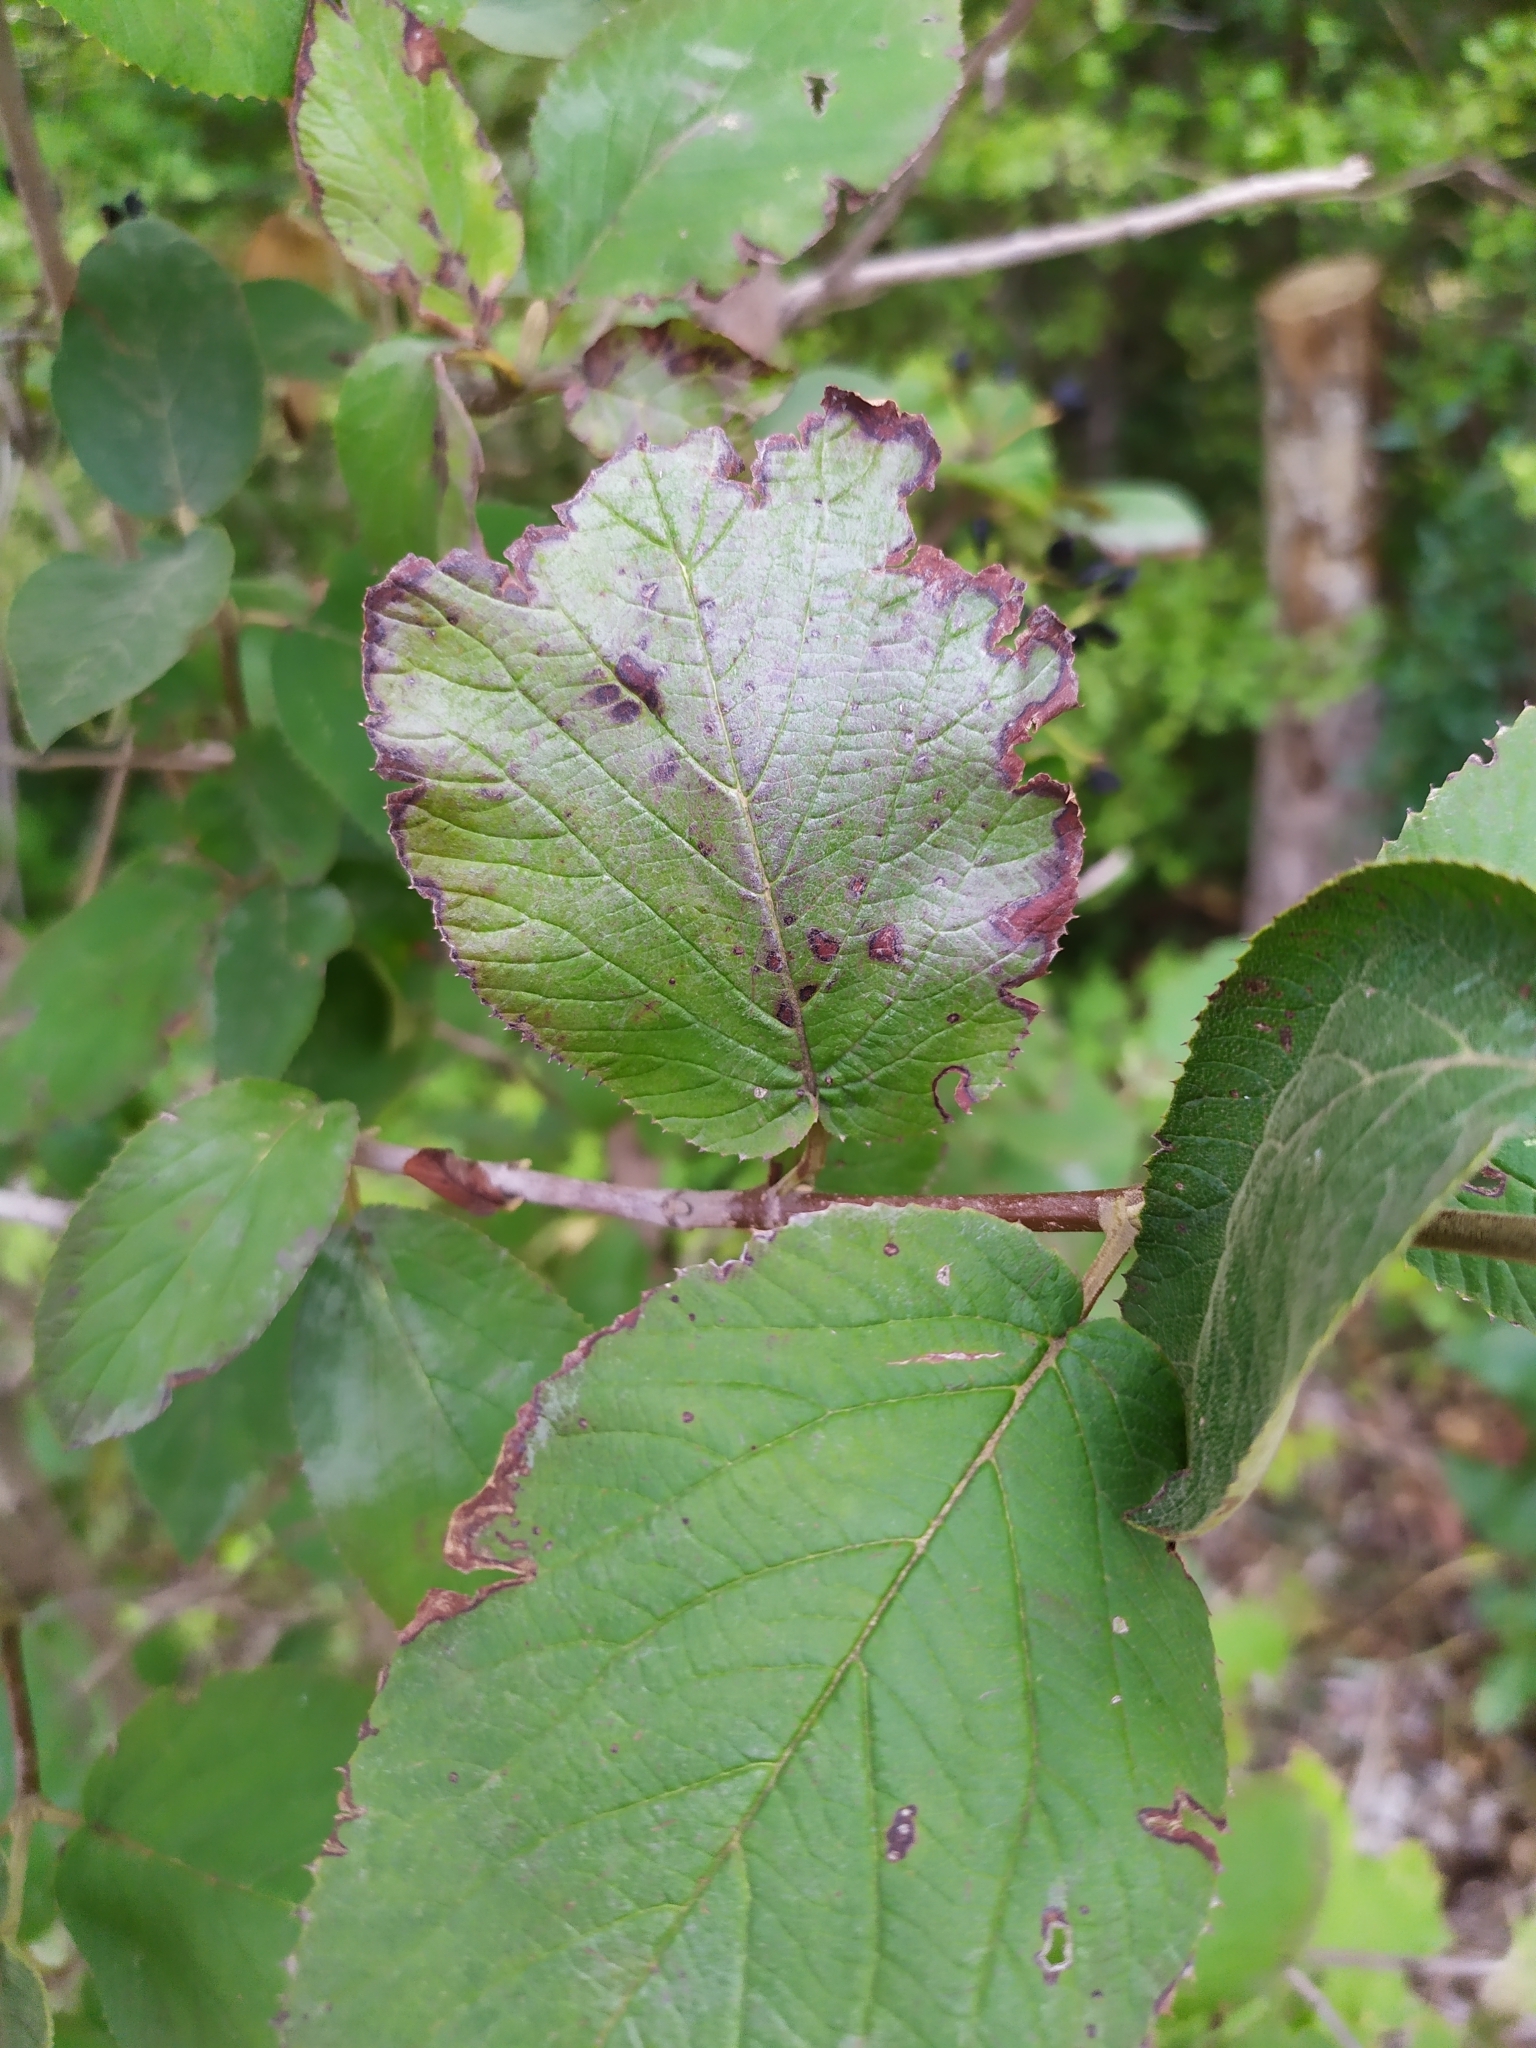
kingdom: Fungi
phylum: Ascomycota
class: Leotiomycetes
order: Helotiales
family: Erysiphaceae
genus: Erysiphe
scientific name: Erysiphe viburni
